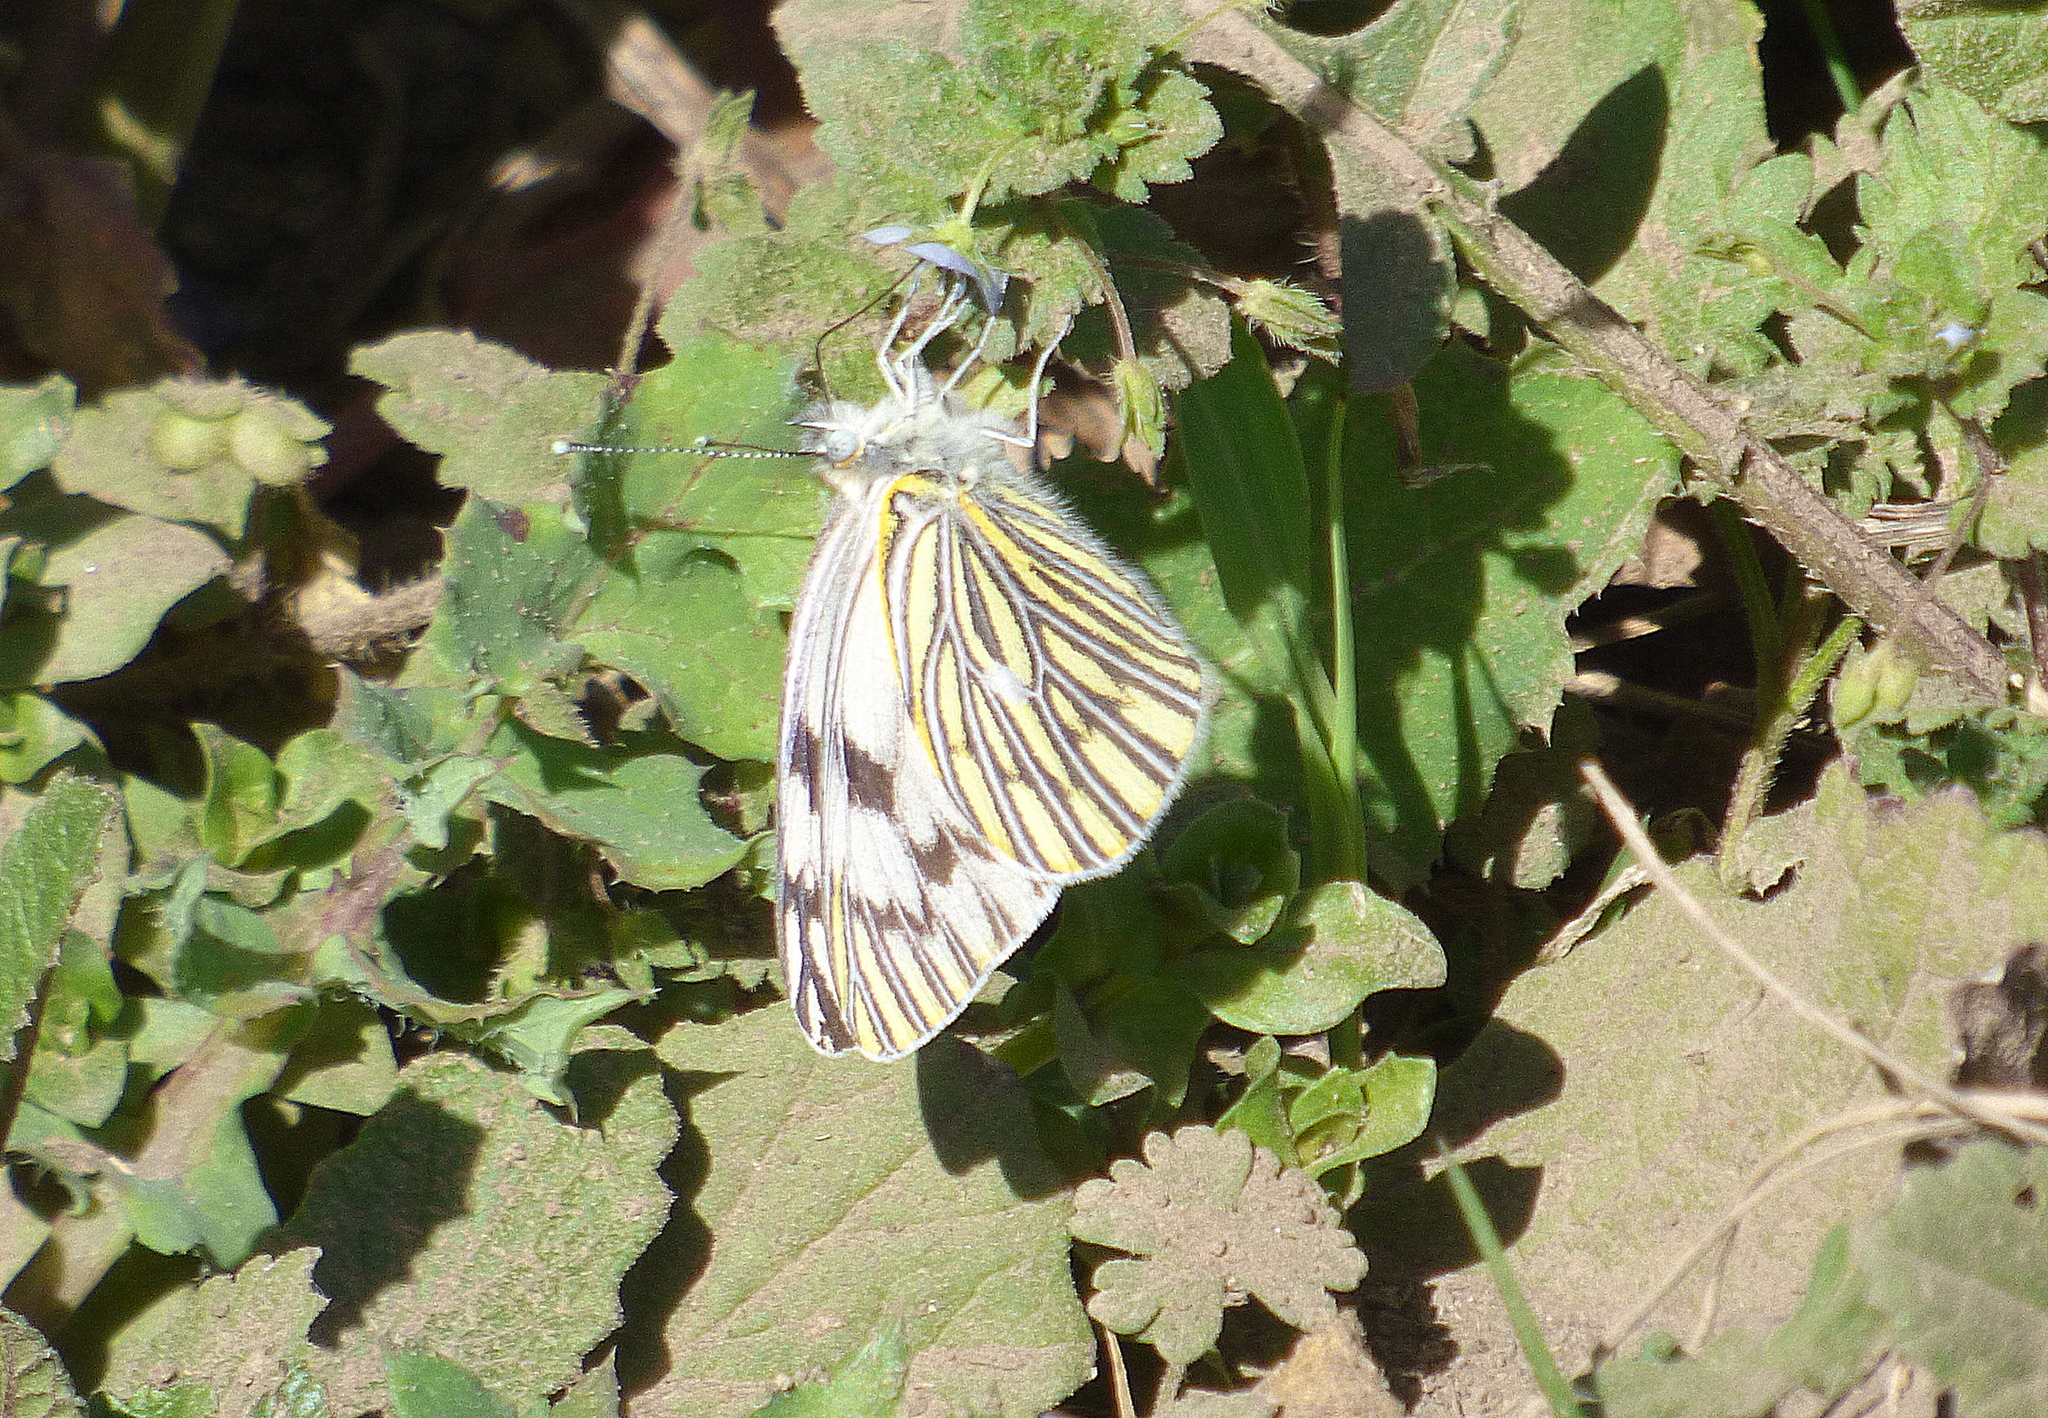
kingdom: Animalia
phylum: Arthropoda
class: Insecta
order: Lepidoptera
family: Pieridae
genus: Tatochila
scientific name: Tatochila mercedis
